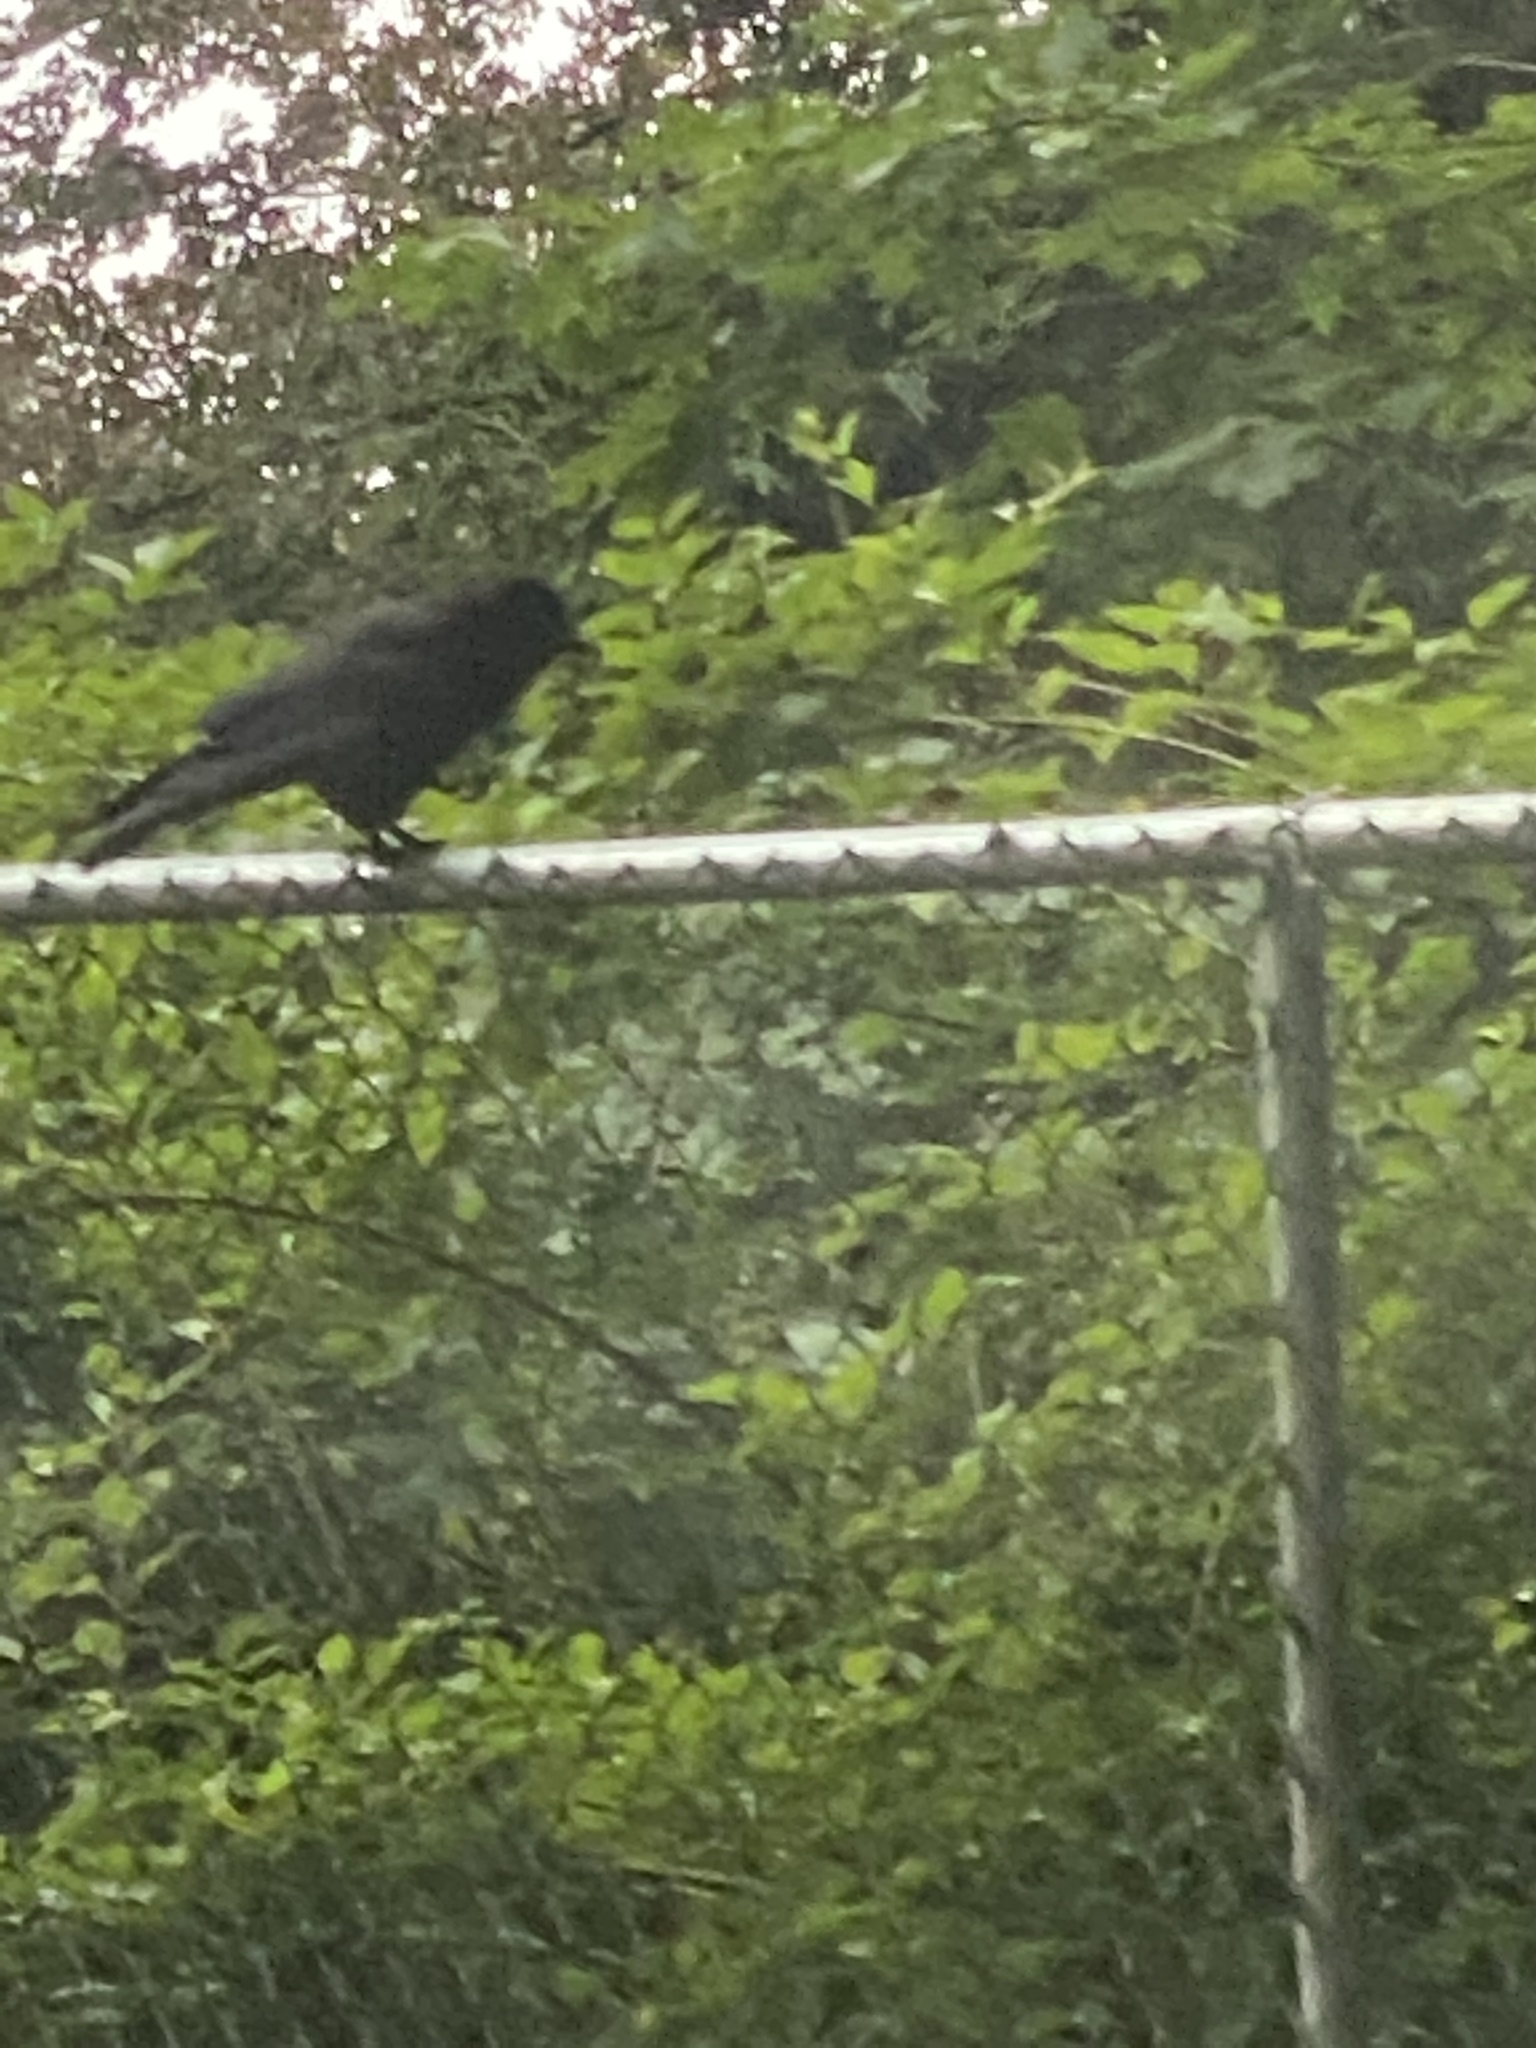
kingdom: Animalia
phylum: Chordata
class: Aves
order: Passeriformes
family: Corvidae
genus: Corvus
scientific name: Corvus brachyrhynchos
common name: American crow
